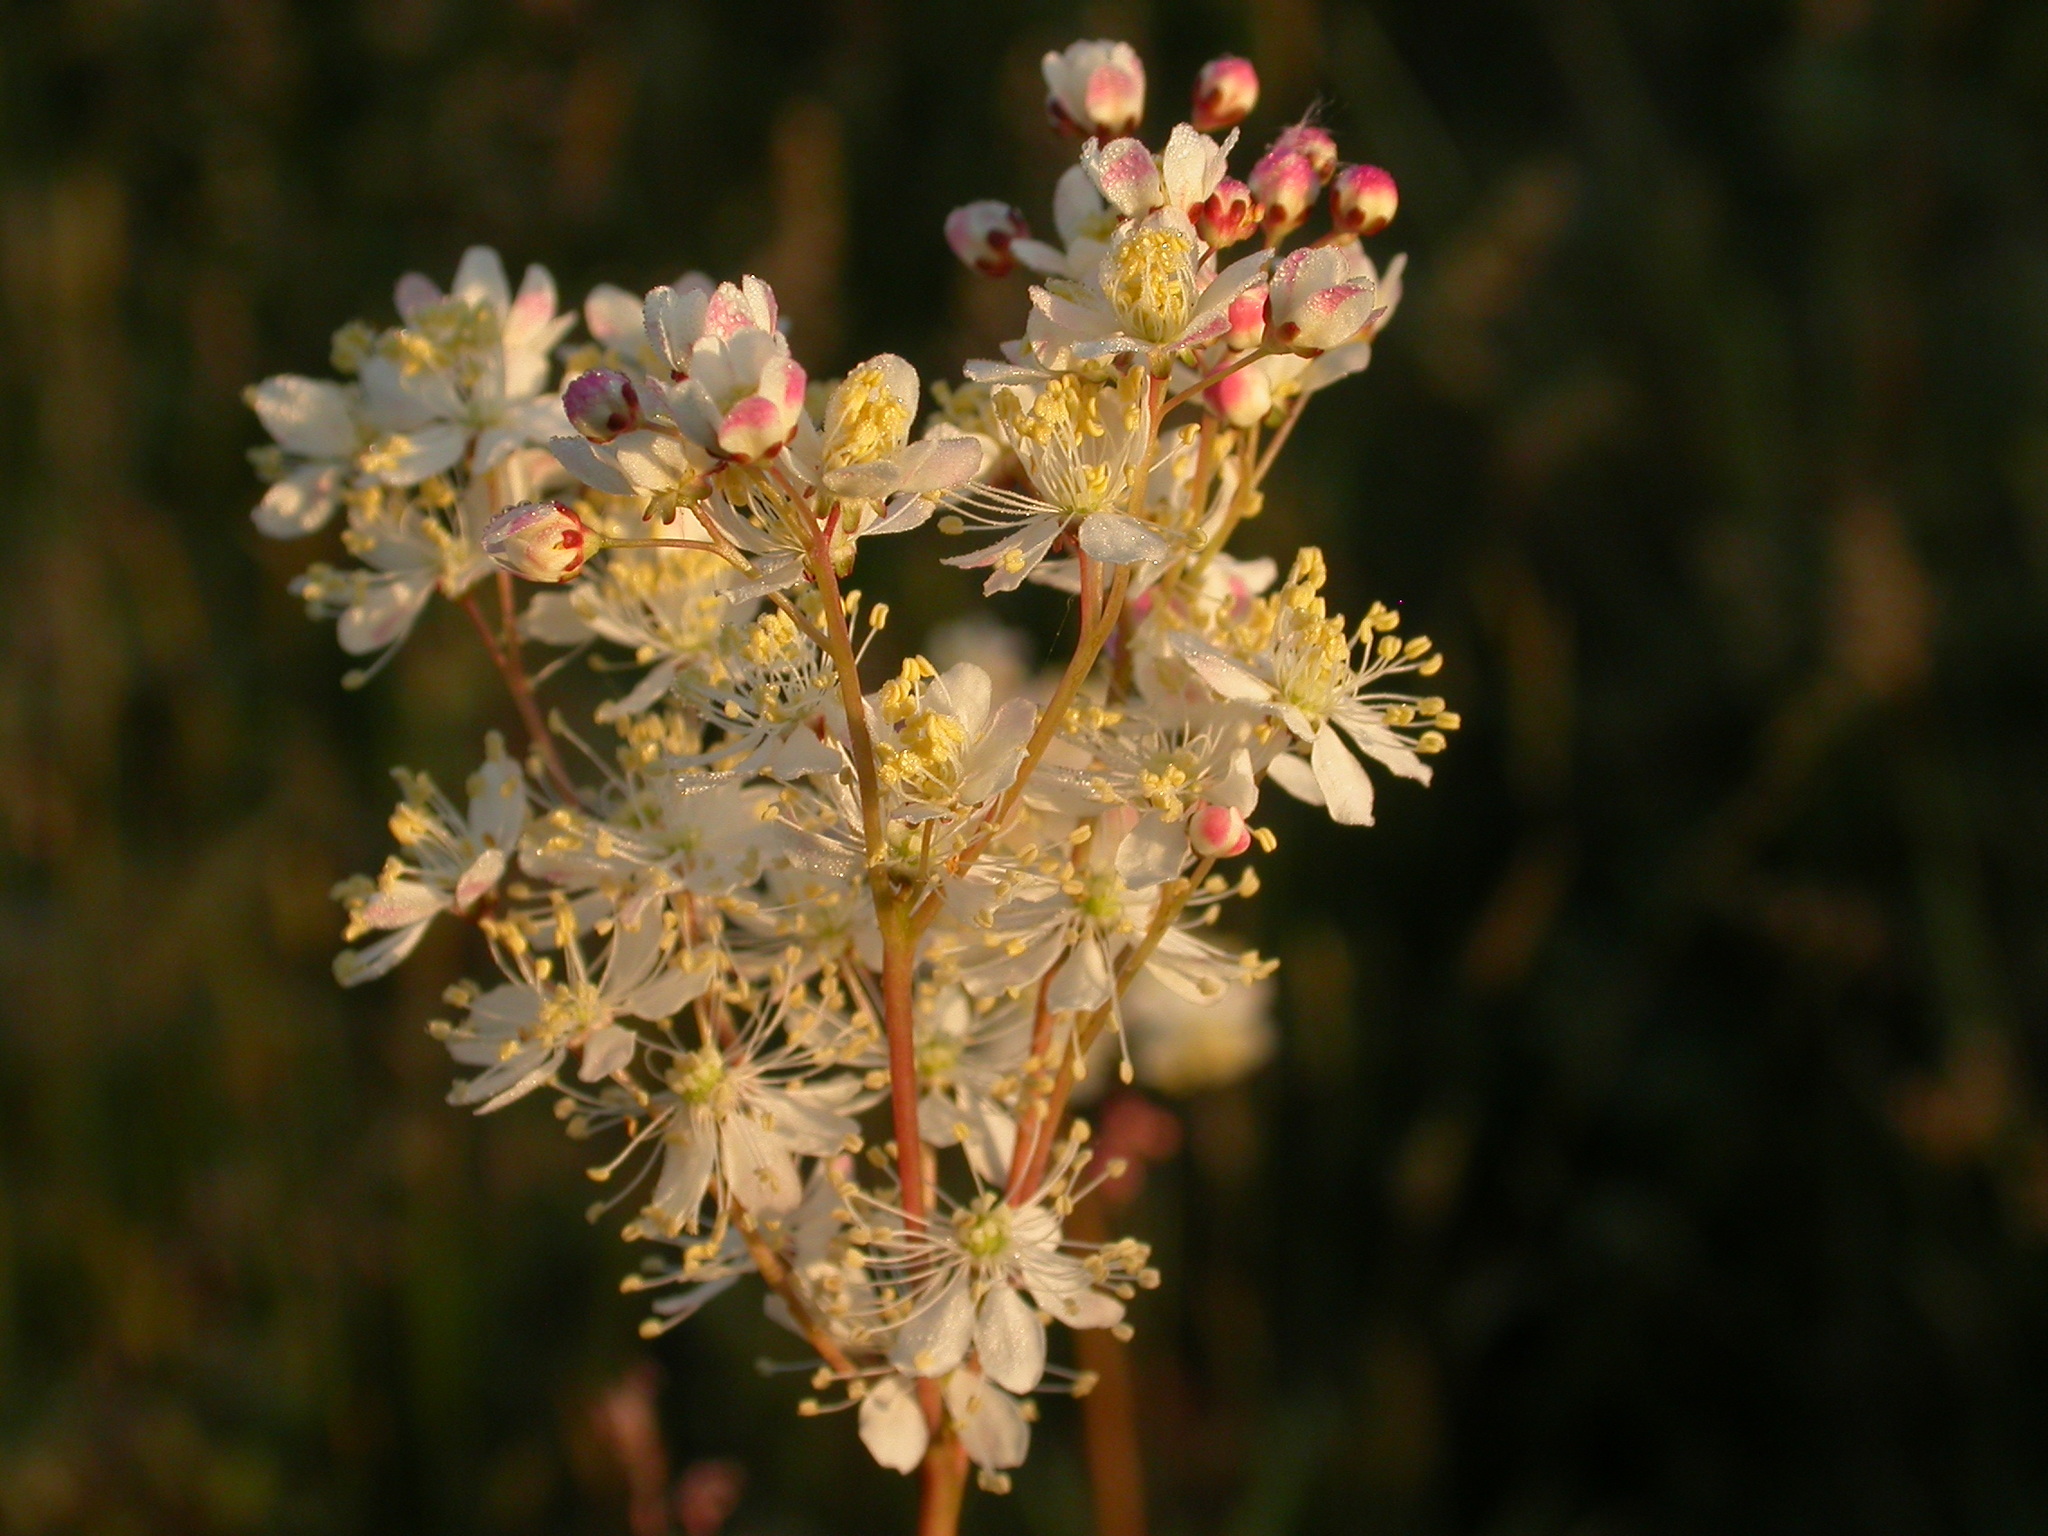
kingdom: Plantae
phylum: Tracheophyta
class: Magnoliopsida
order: Rosales
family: Rosaceae
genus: Filipendula
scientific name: Filipendula vulgaris
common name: Dropwort
